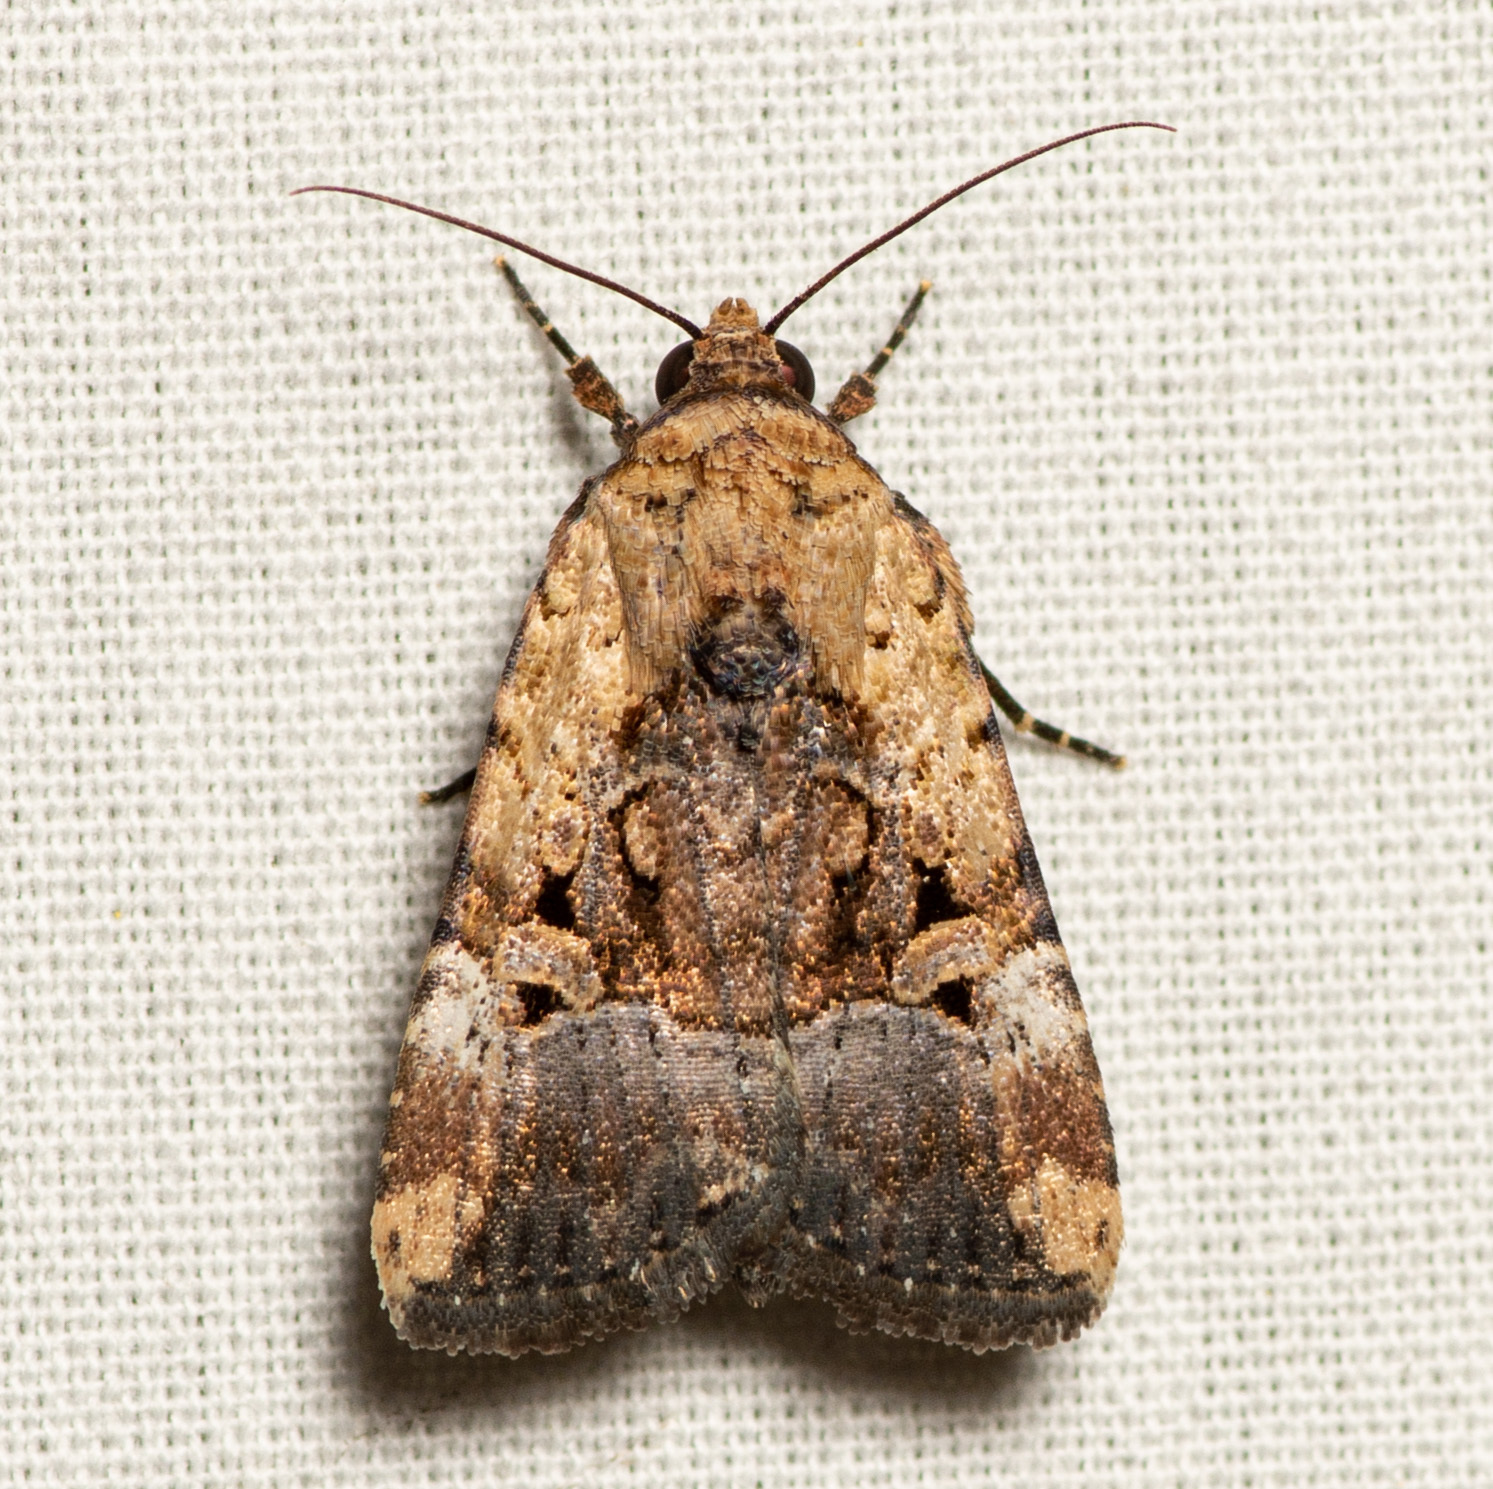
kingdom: Animalia
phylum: Arthropoda
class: Insecta
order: Lepidoptera
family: Noctuidae
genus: Elaphria
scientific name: Elaphria chalcedonia
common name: Chalcedony midget
